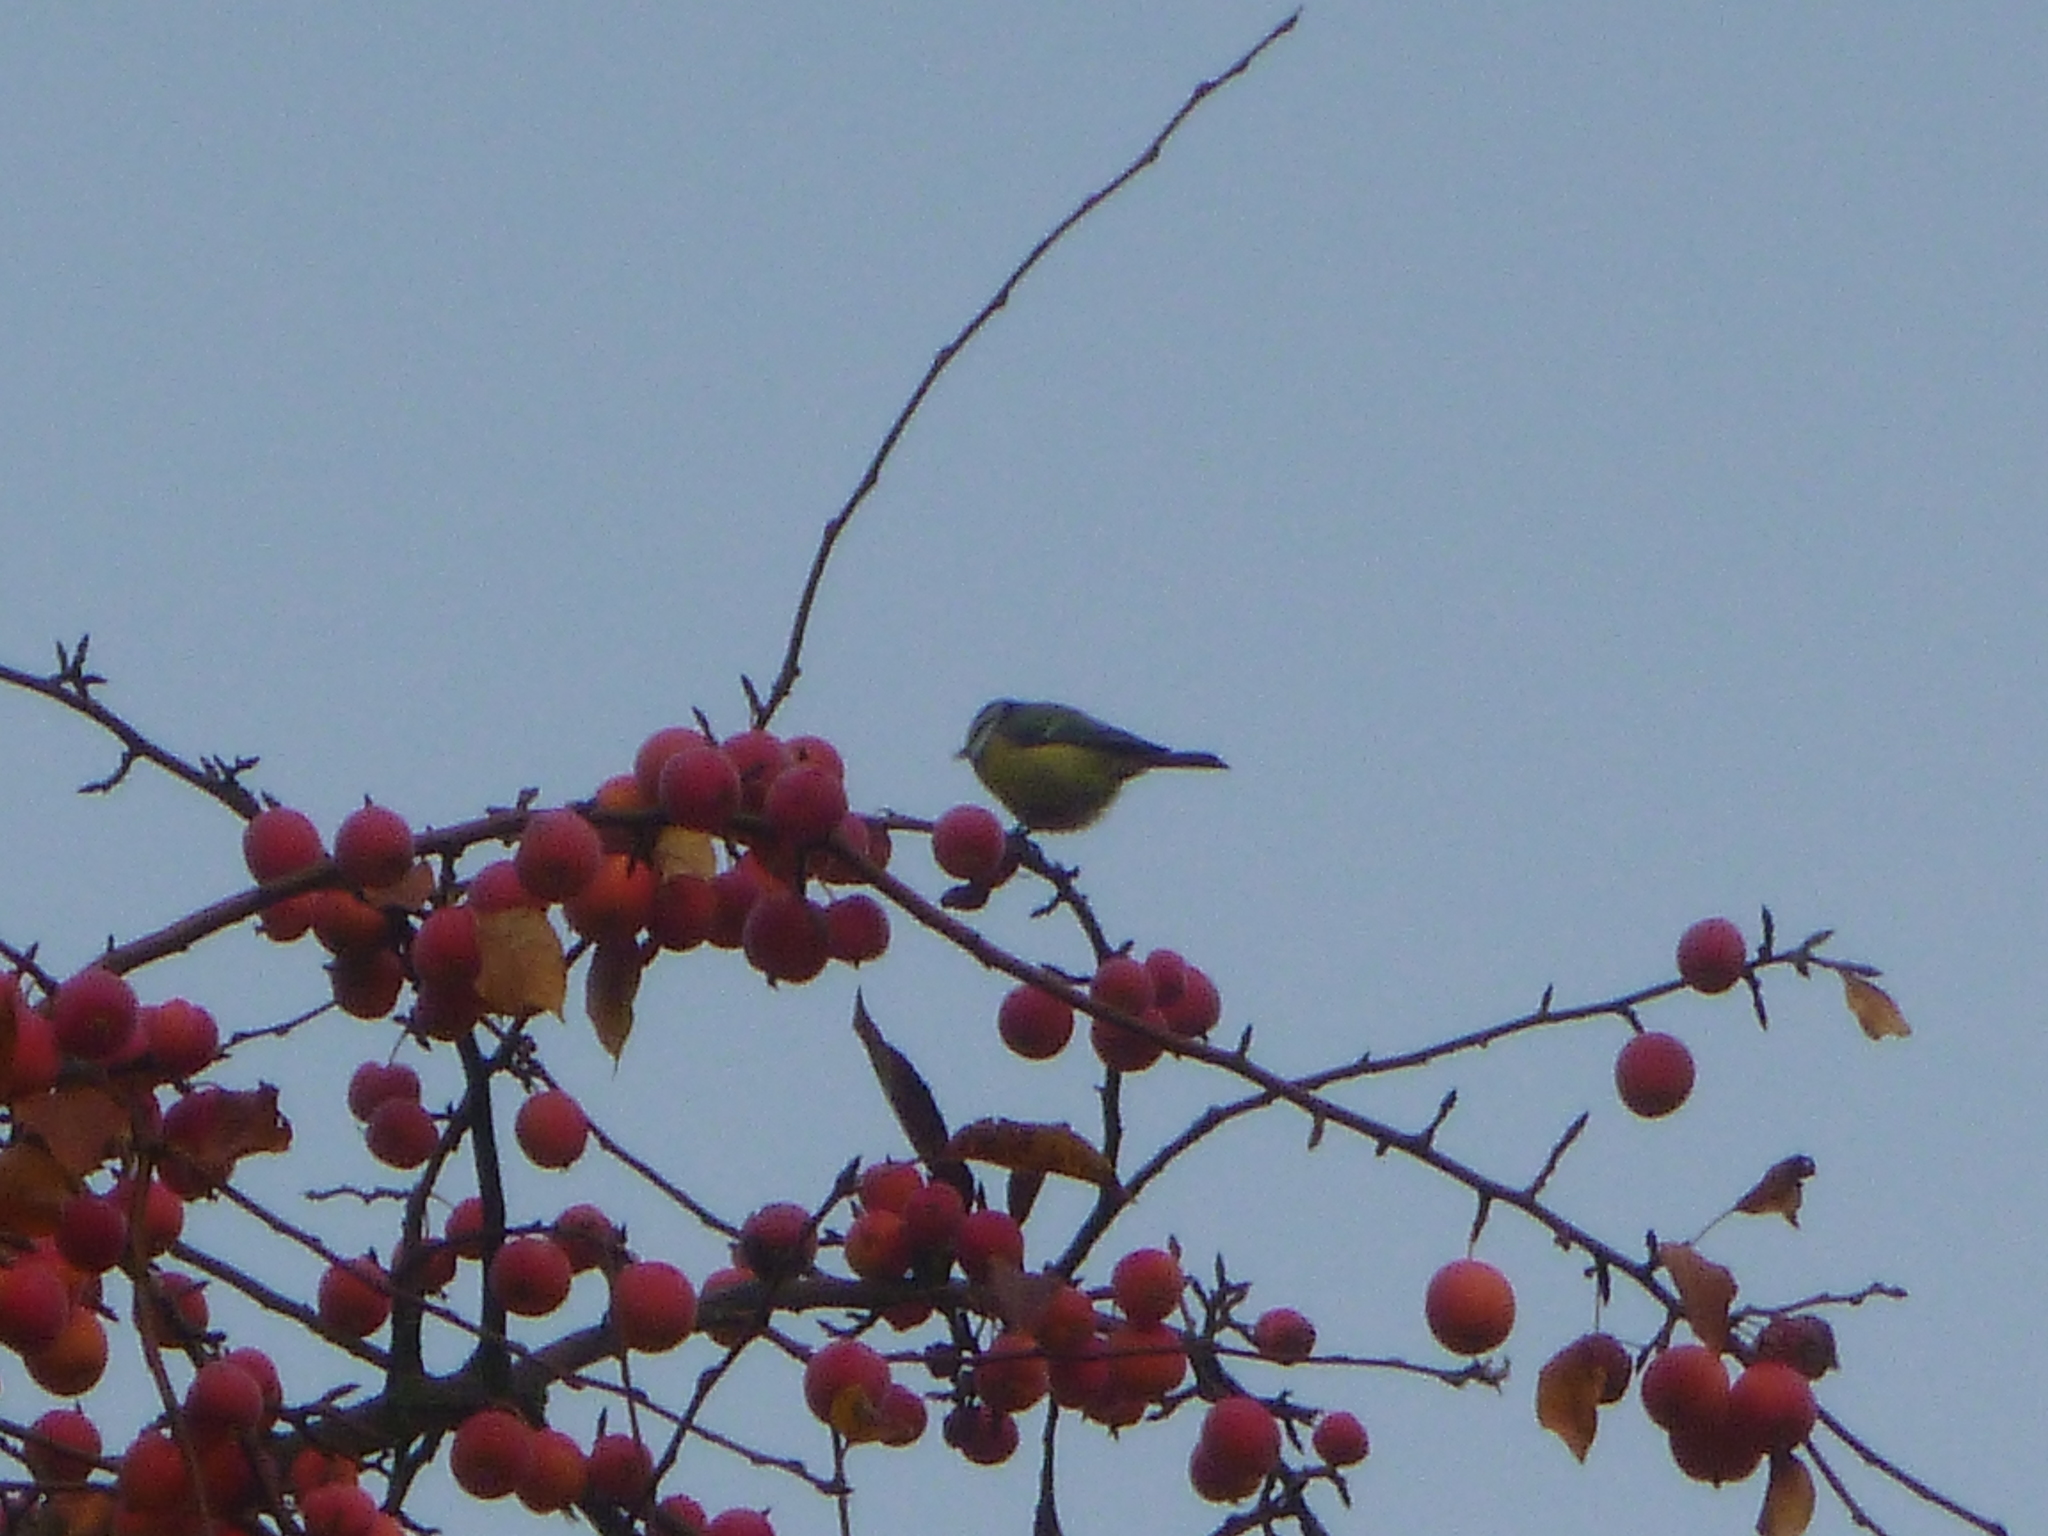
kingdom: Animalia
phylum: Chordata
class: Aves
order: Passeriformes
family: Paridae
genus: Cyanistes
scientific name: Cyanistes caeruleus
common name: Eurasian blue tit
